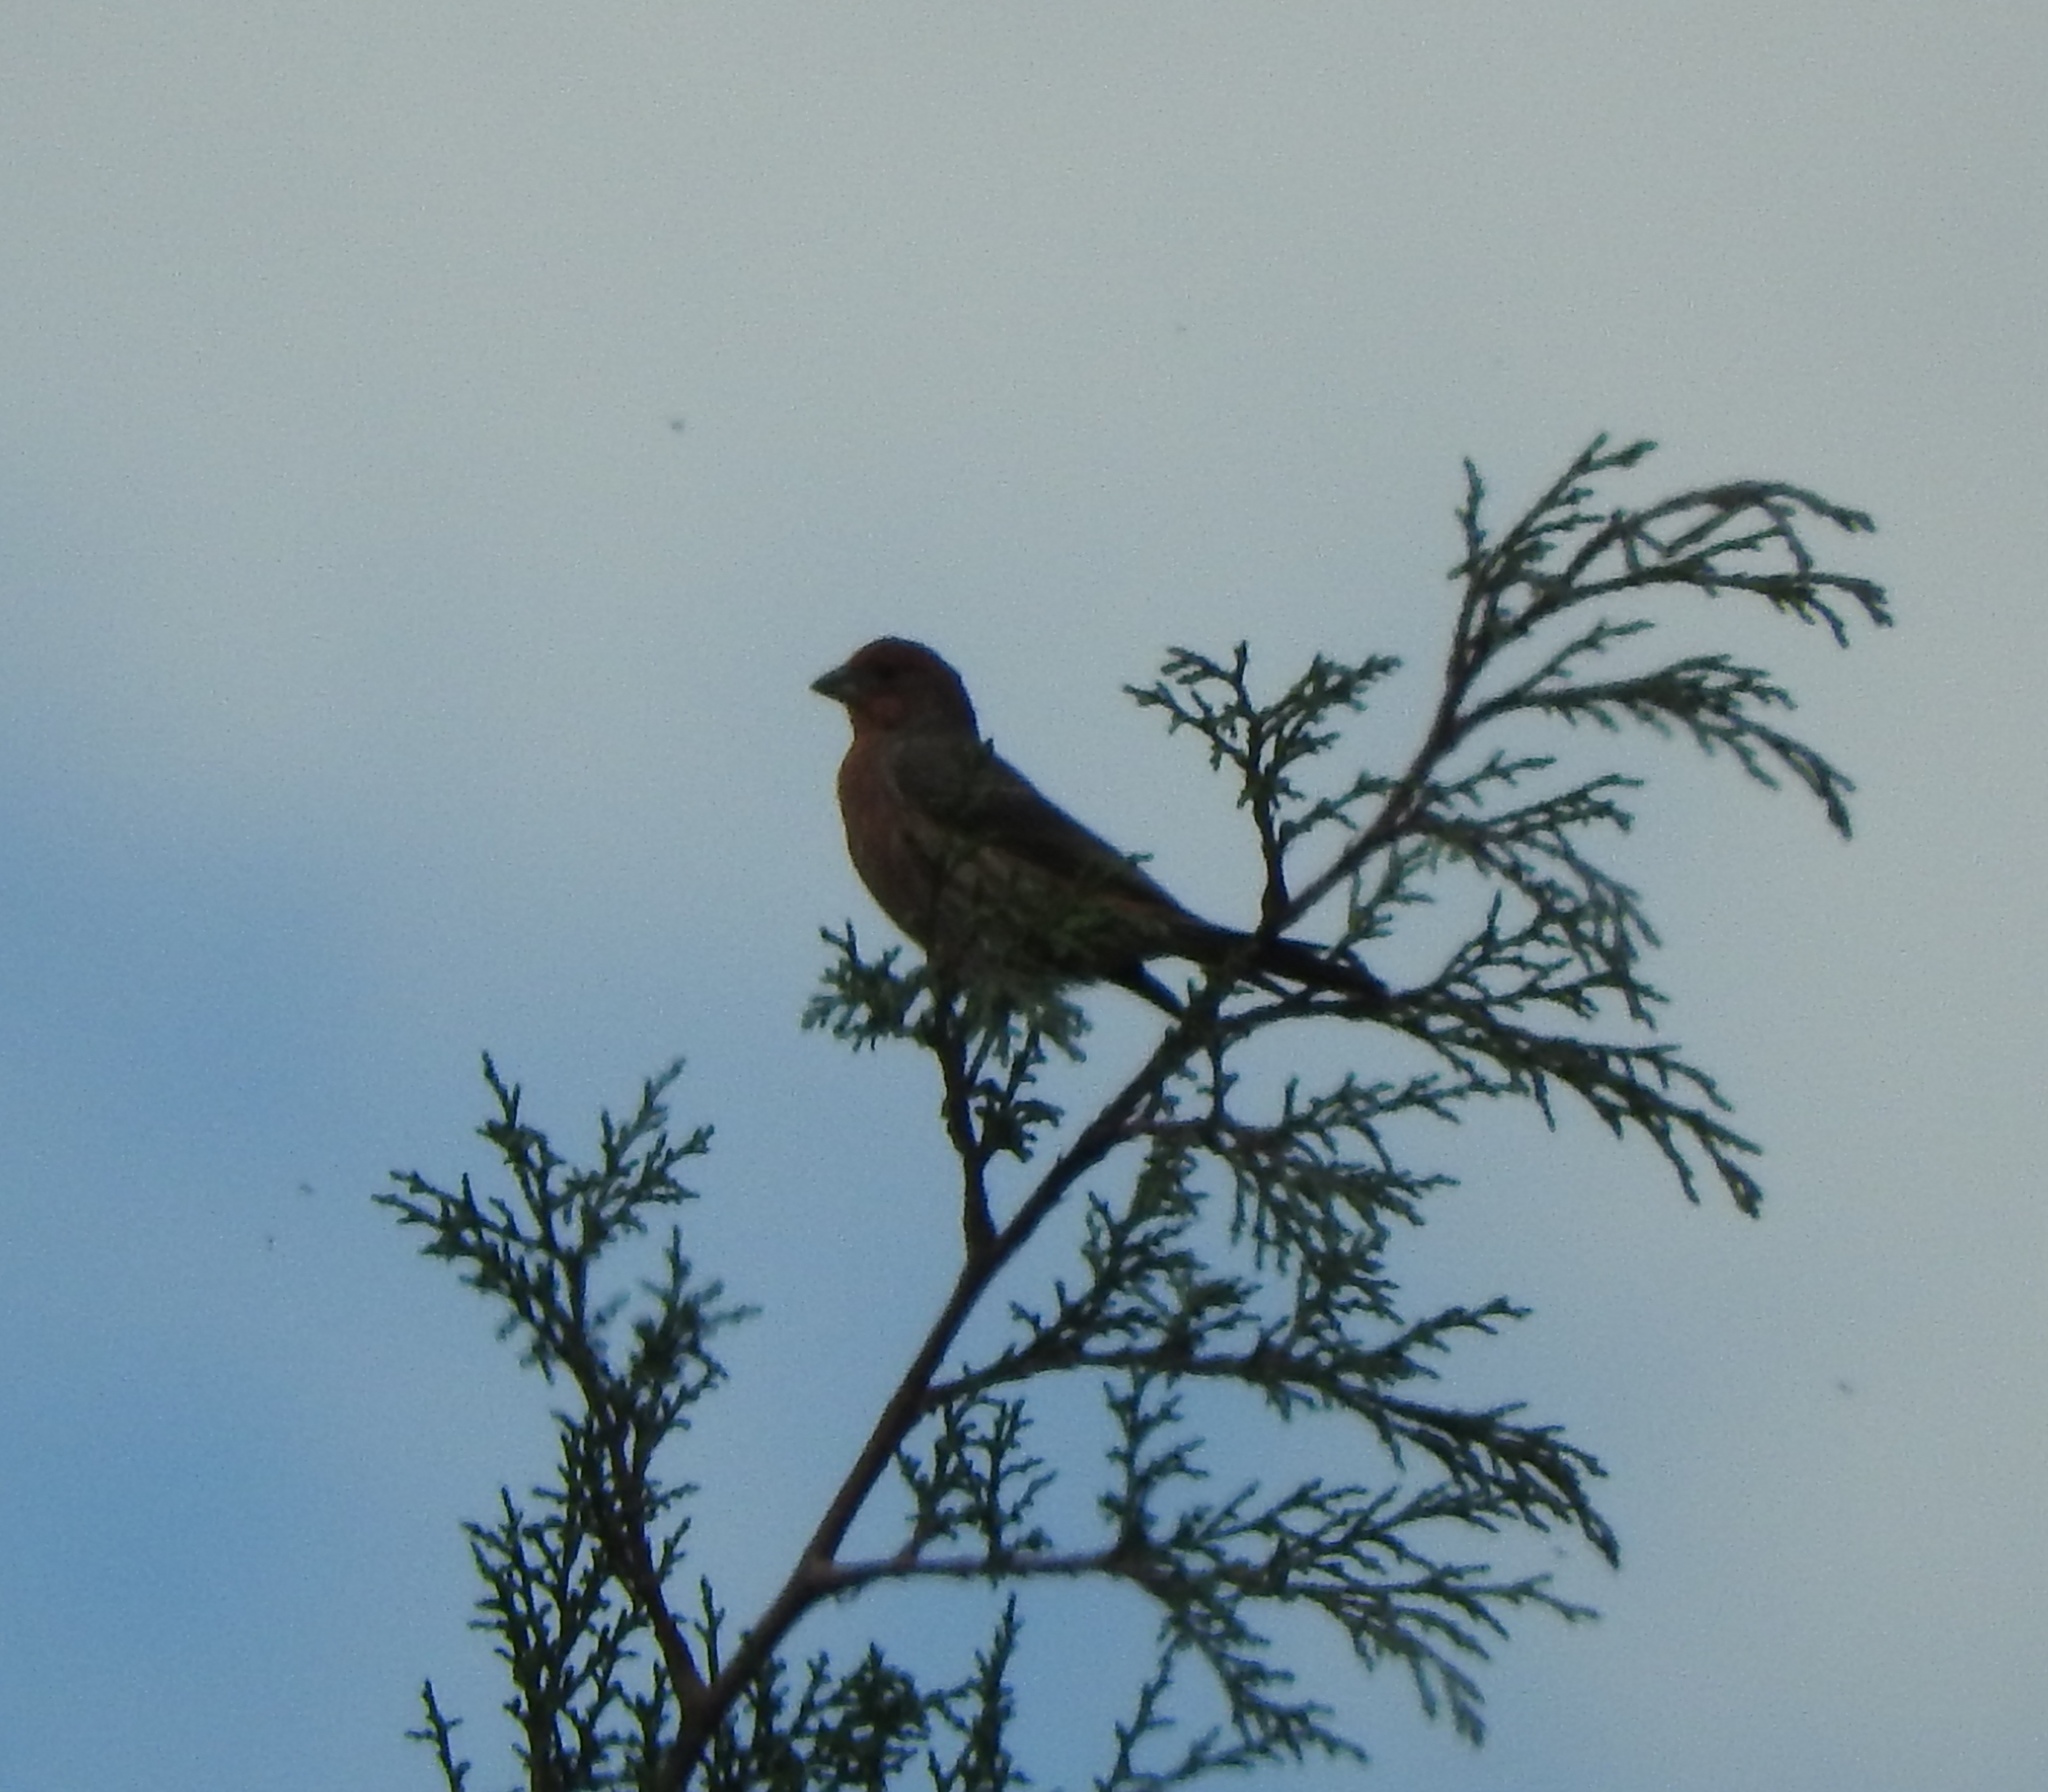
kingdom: Animalia
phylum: Chordata
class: Aves
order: Passeriformes
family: Fringillidae
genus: Haemorhous
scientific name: Haemorhous mexicanus
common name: House finch
